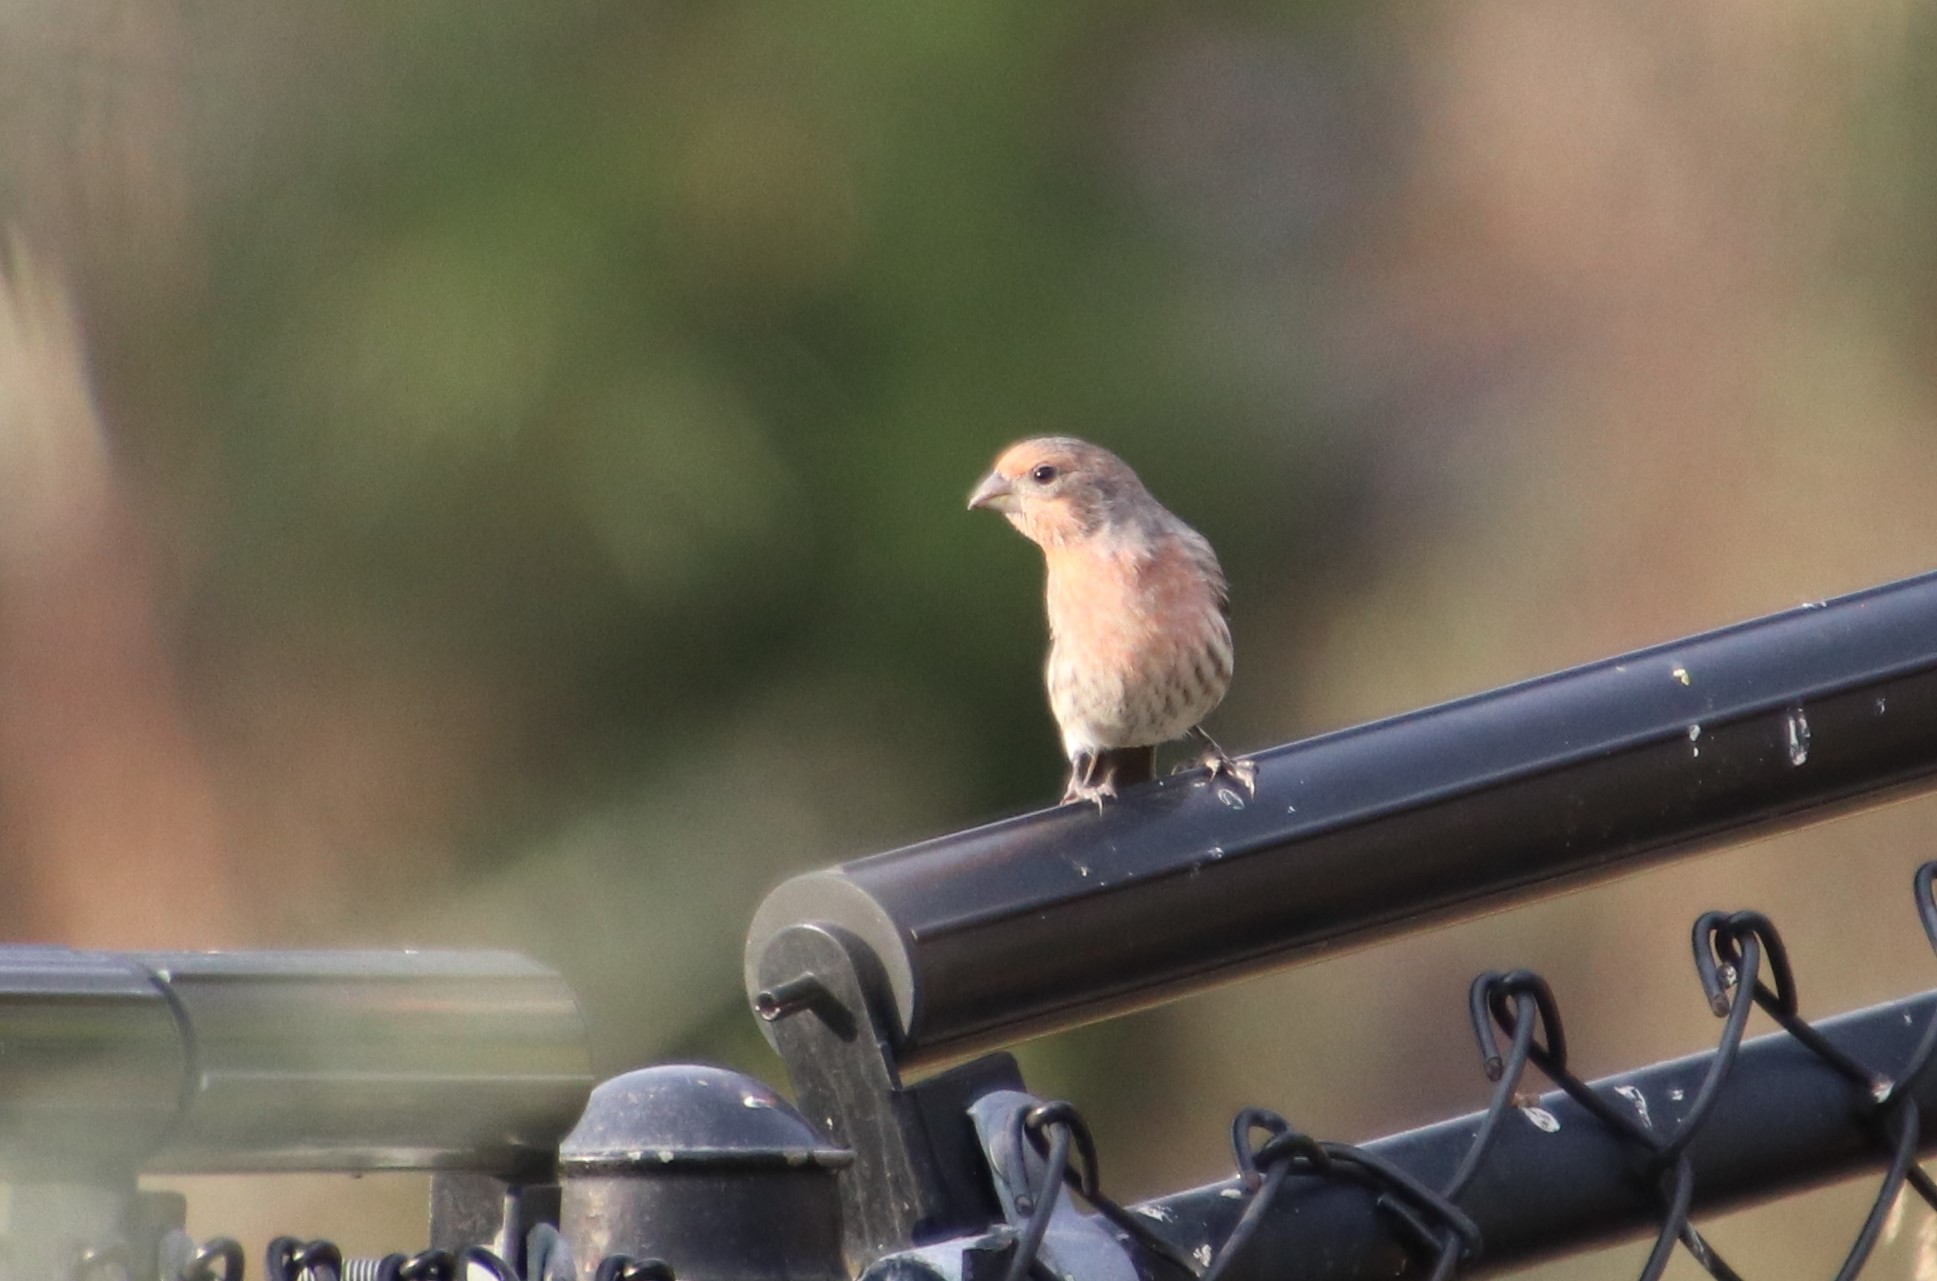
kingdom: Animalia
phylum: Chordata
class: Aves
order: Passeriformes
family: Fringillidae
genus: Haemorhous
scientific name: Haemorhous mexicanus
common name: House finch
